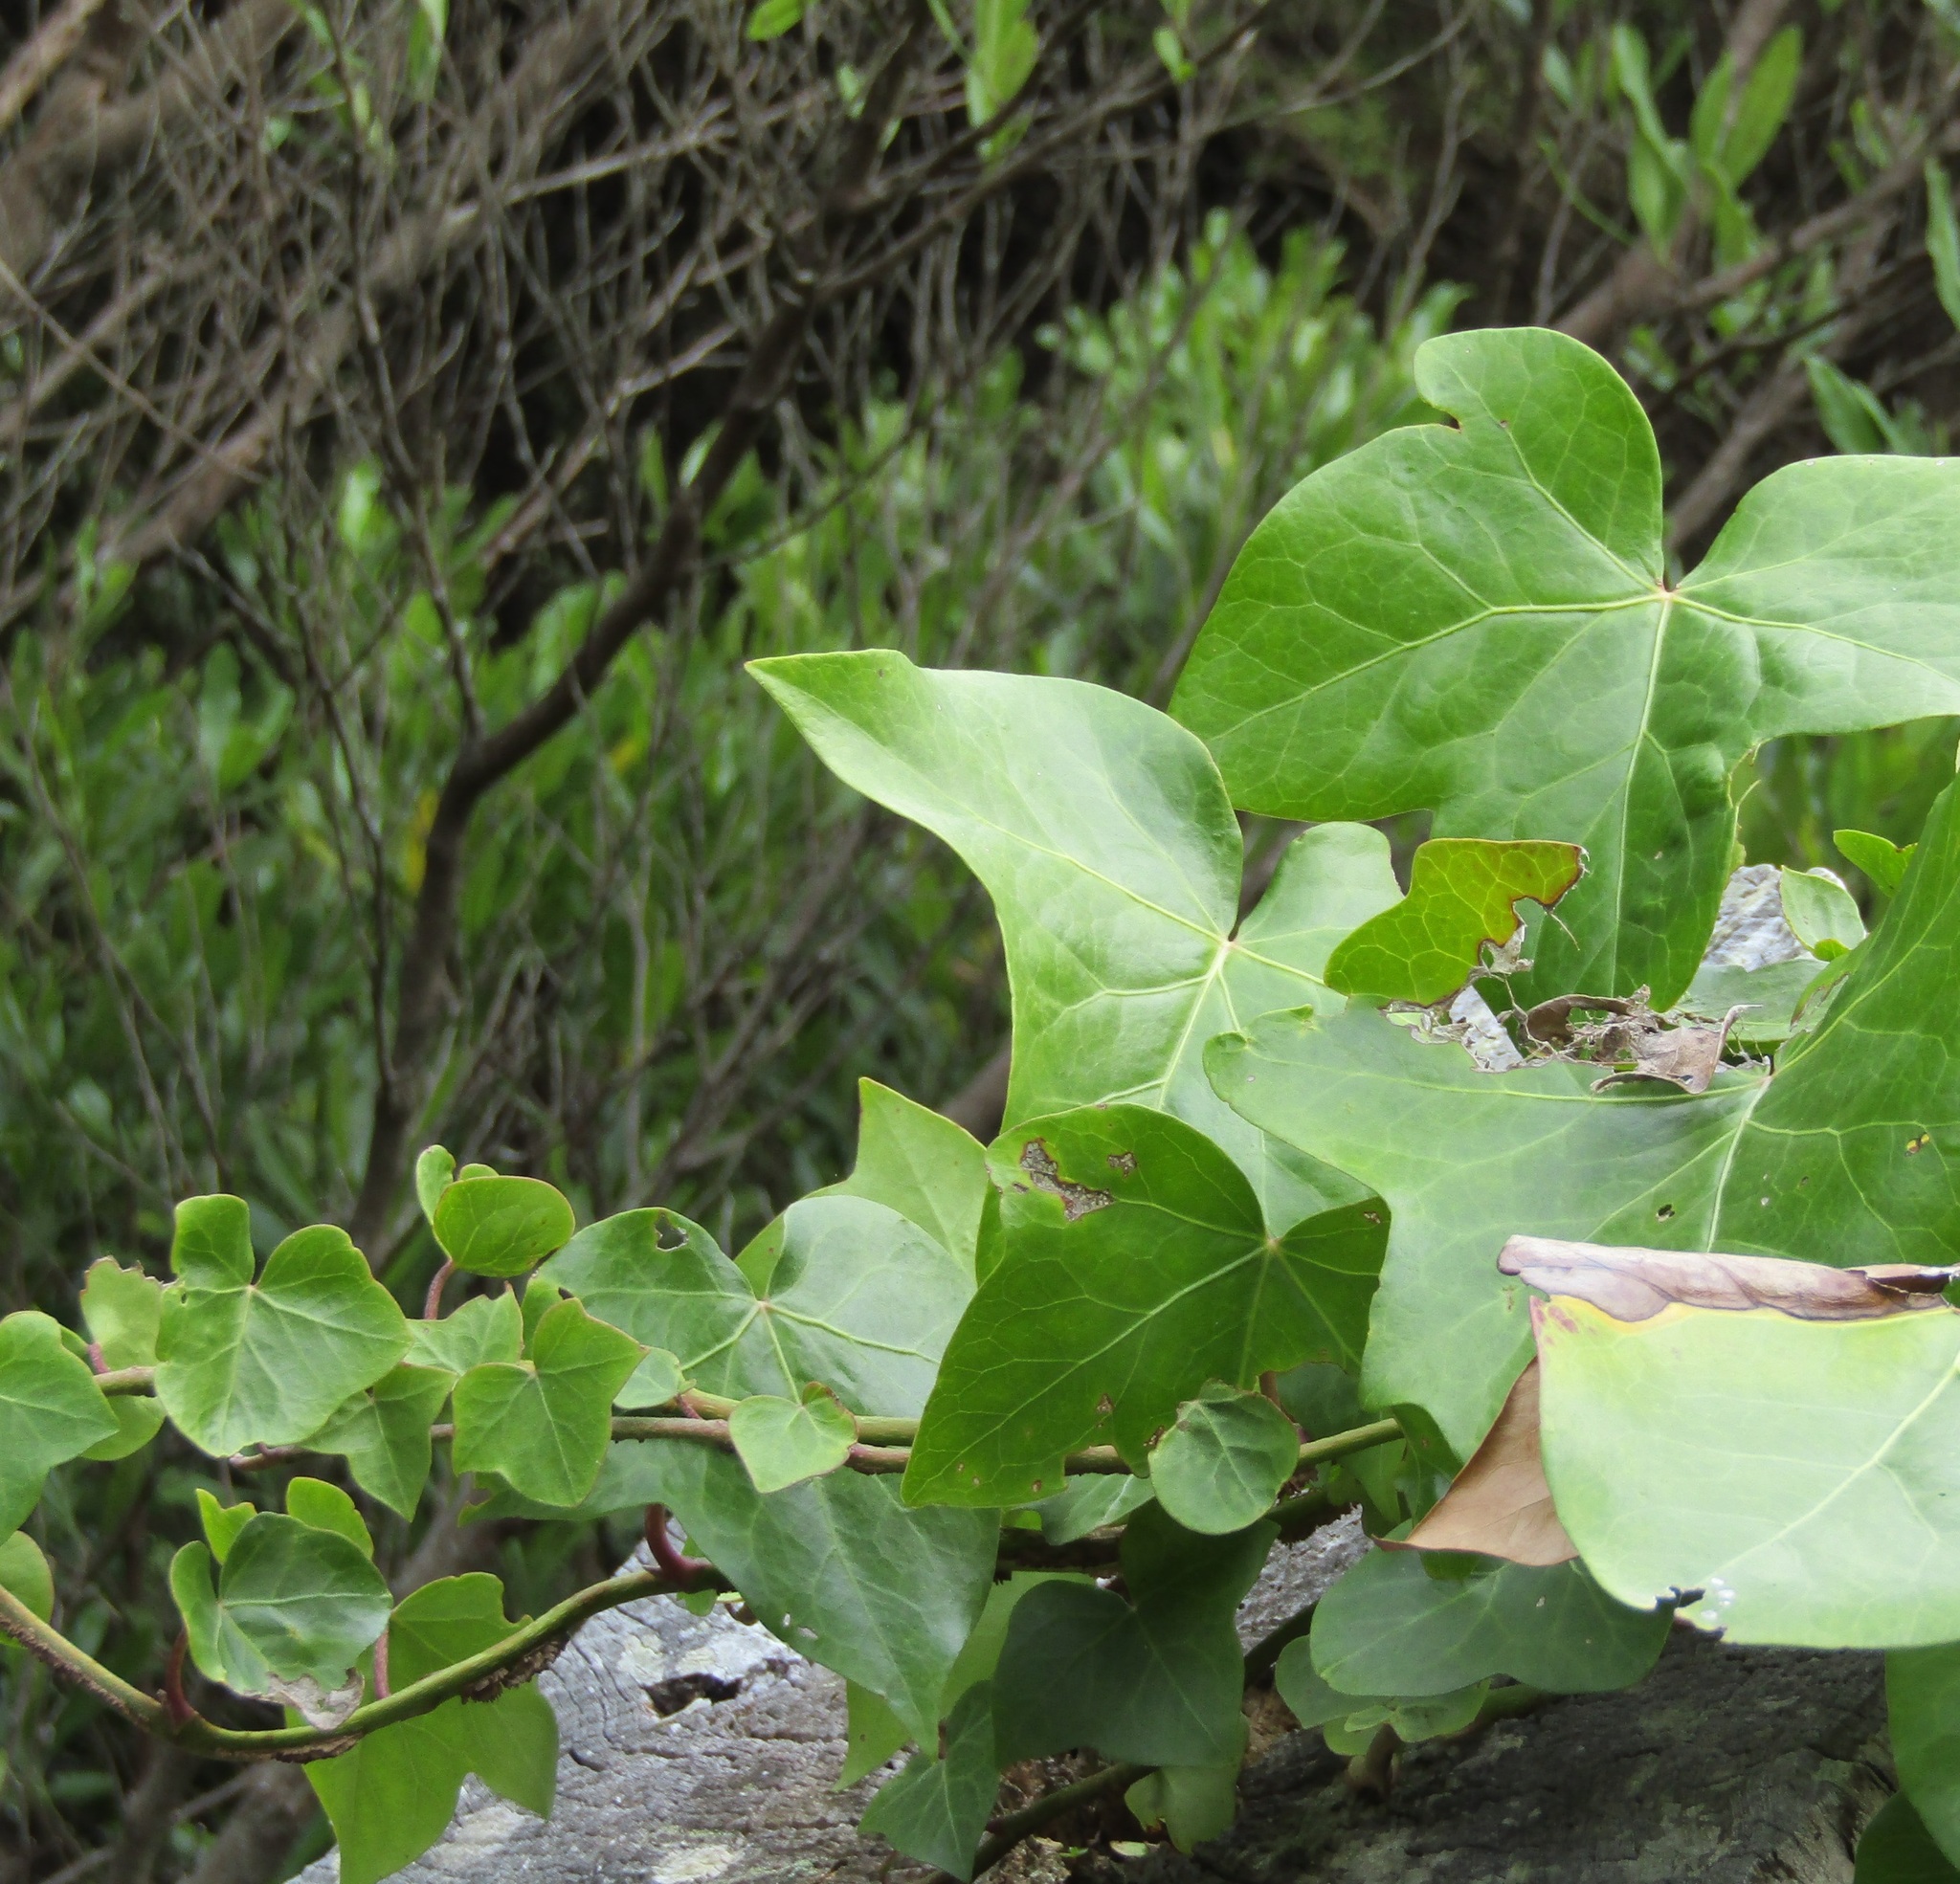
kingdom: Plantae
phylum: Tracheophyta
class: Magnoliopsida
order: Apiales
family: Araliaceae
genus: Hedera
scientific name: Hedera helix
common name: Ivy
